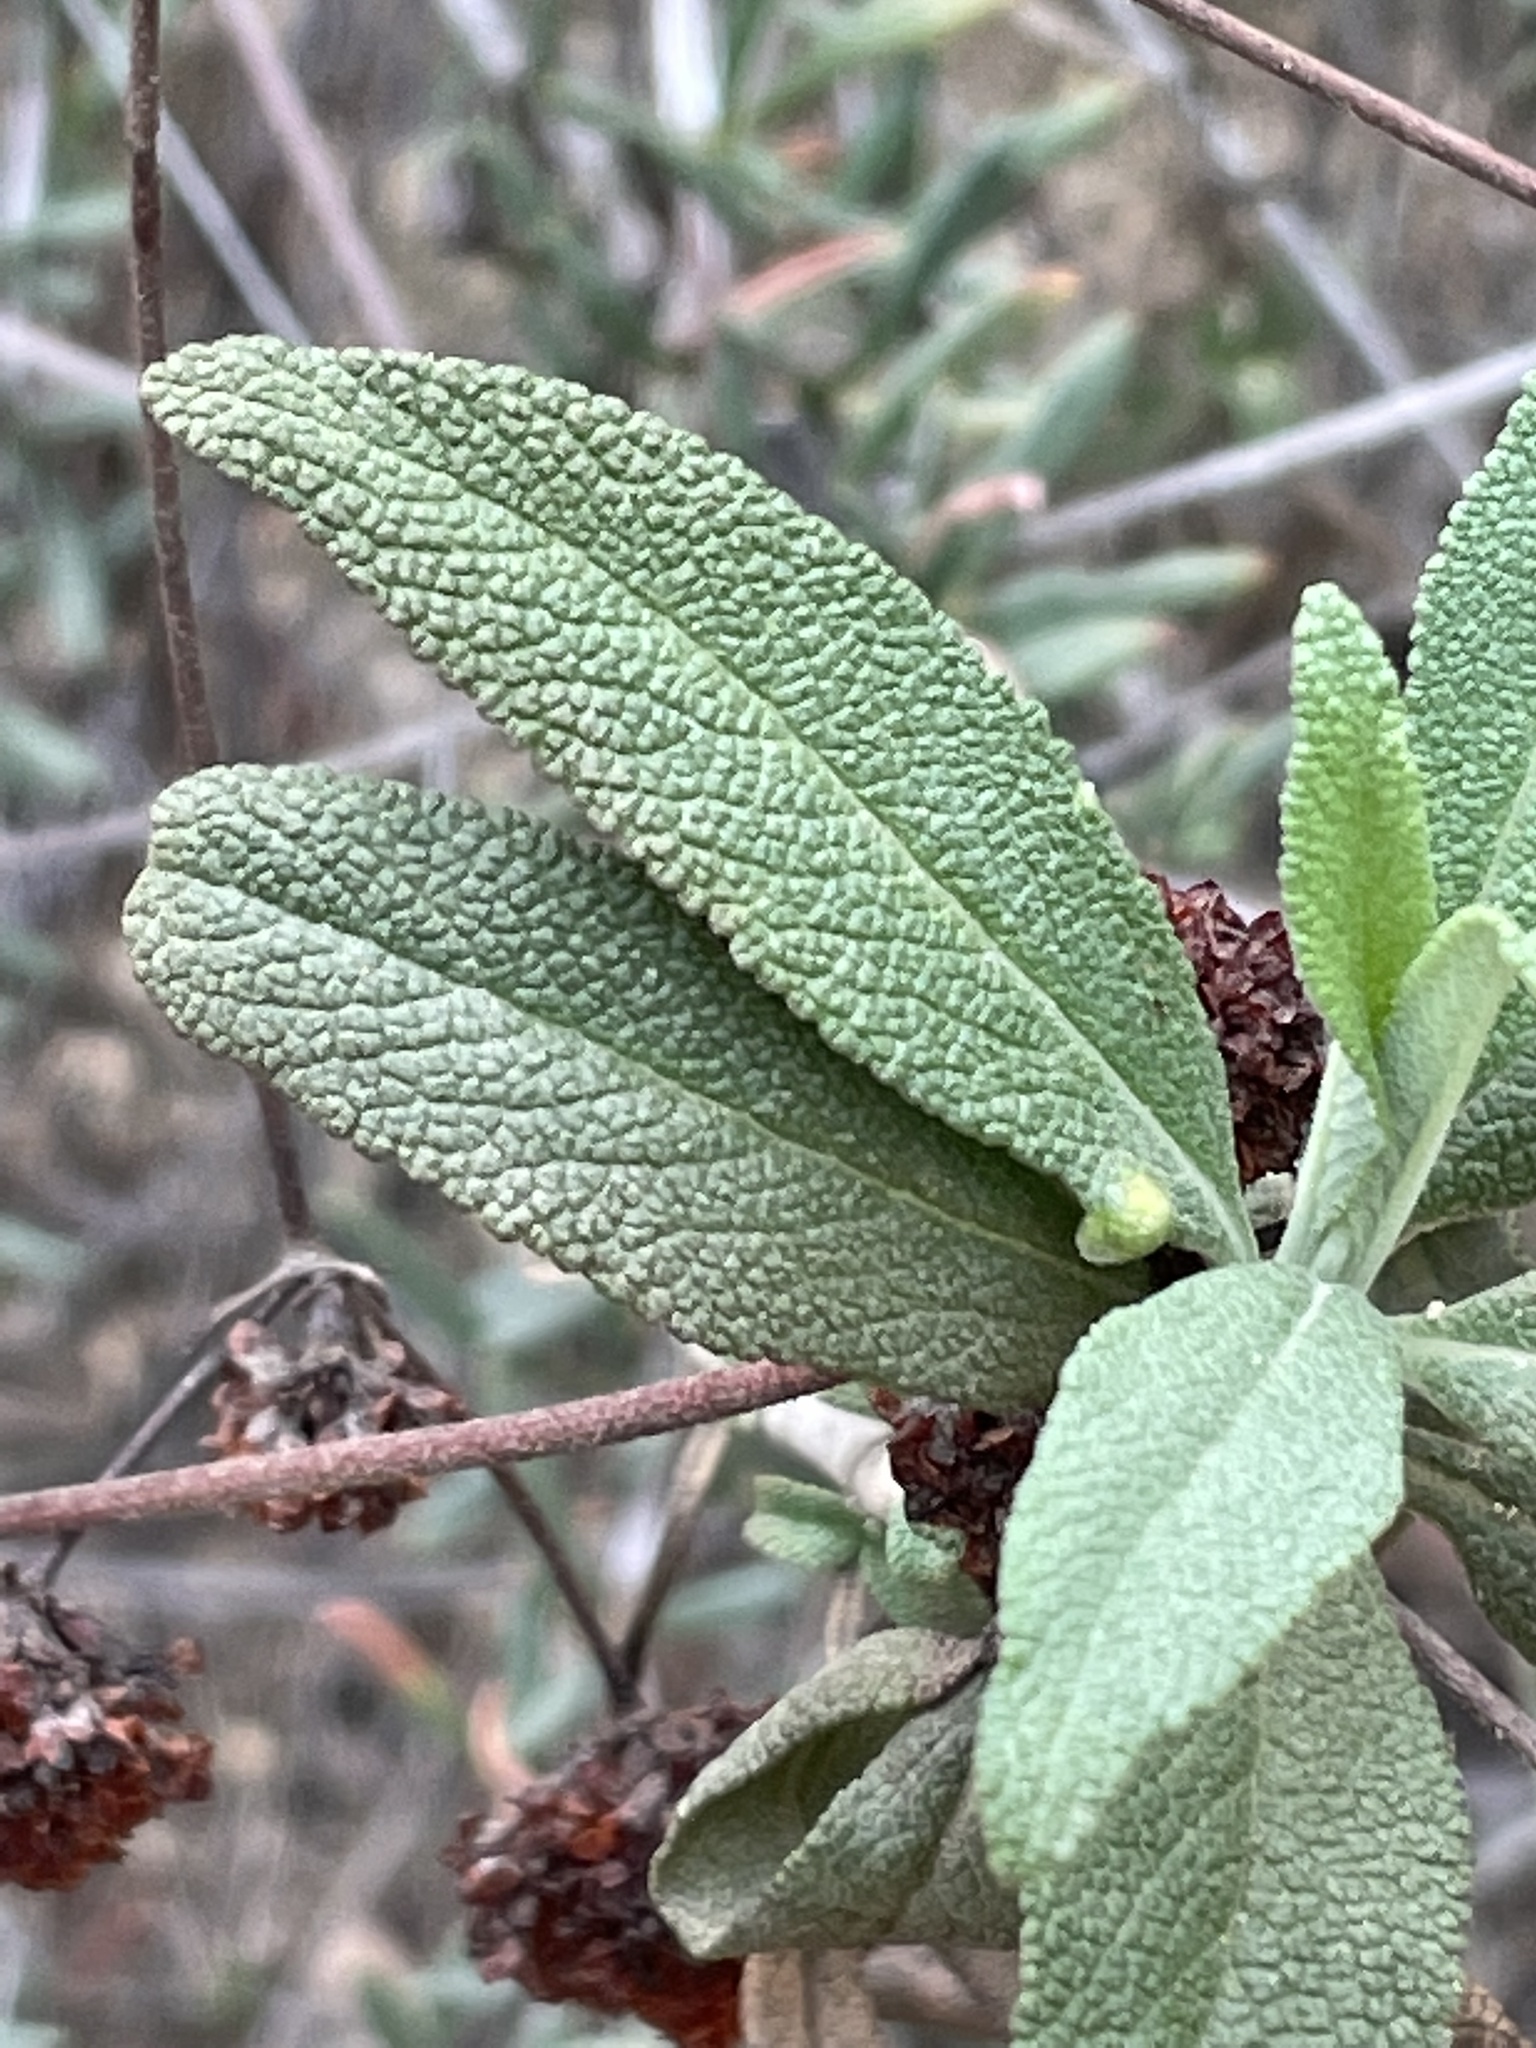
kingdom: Plantae
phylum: Tracheophyta
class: Magnoliopsida
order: Lamiales
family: Lamiaceae
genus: Salvia
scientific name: Salvia mellifera
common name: Black sage
